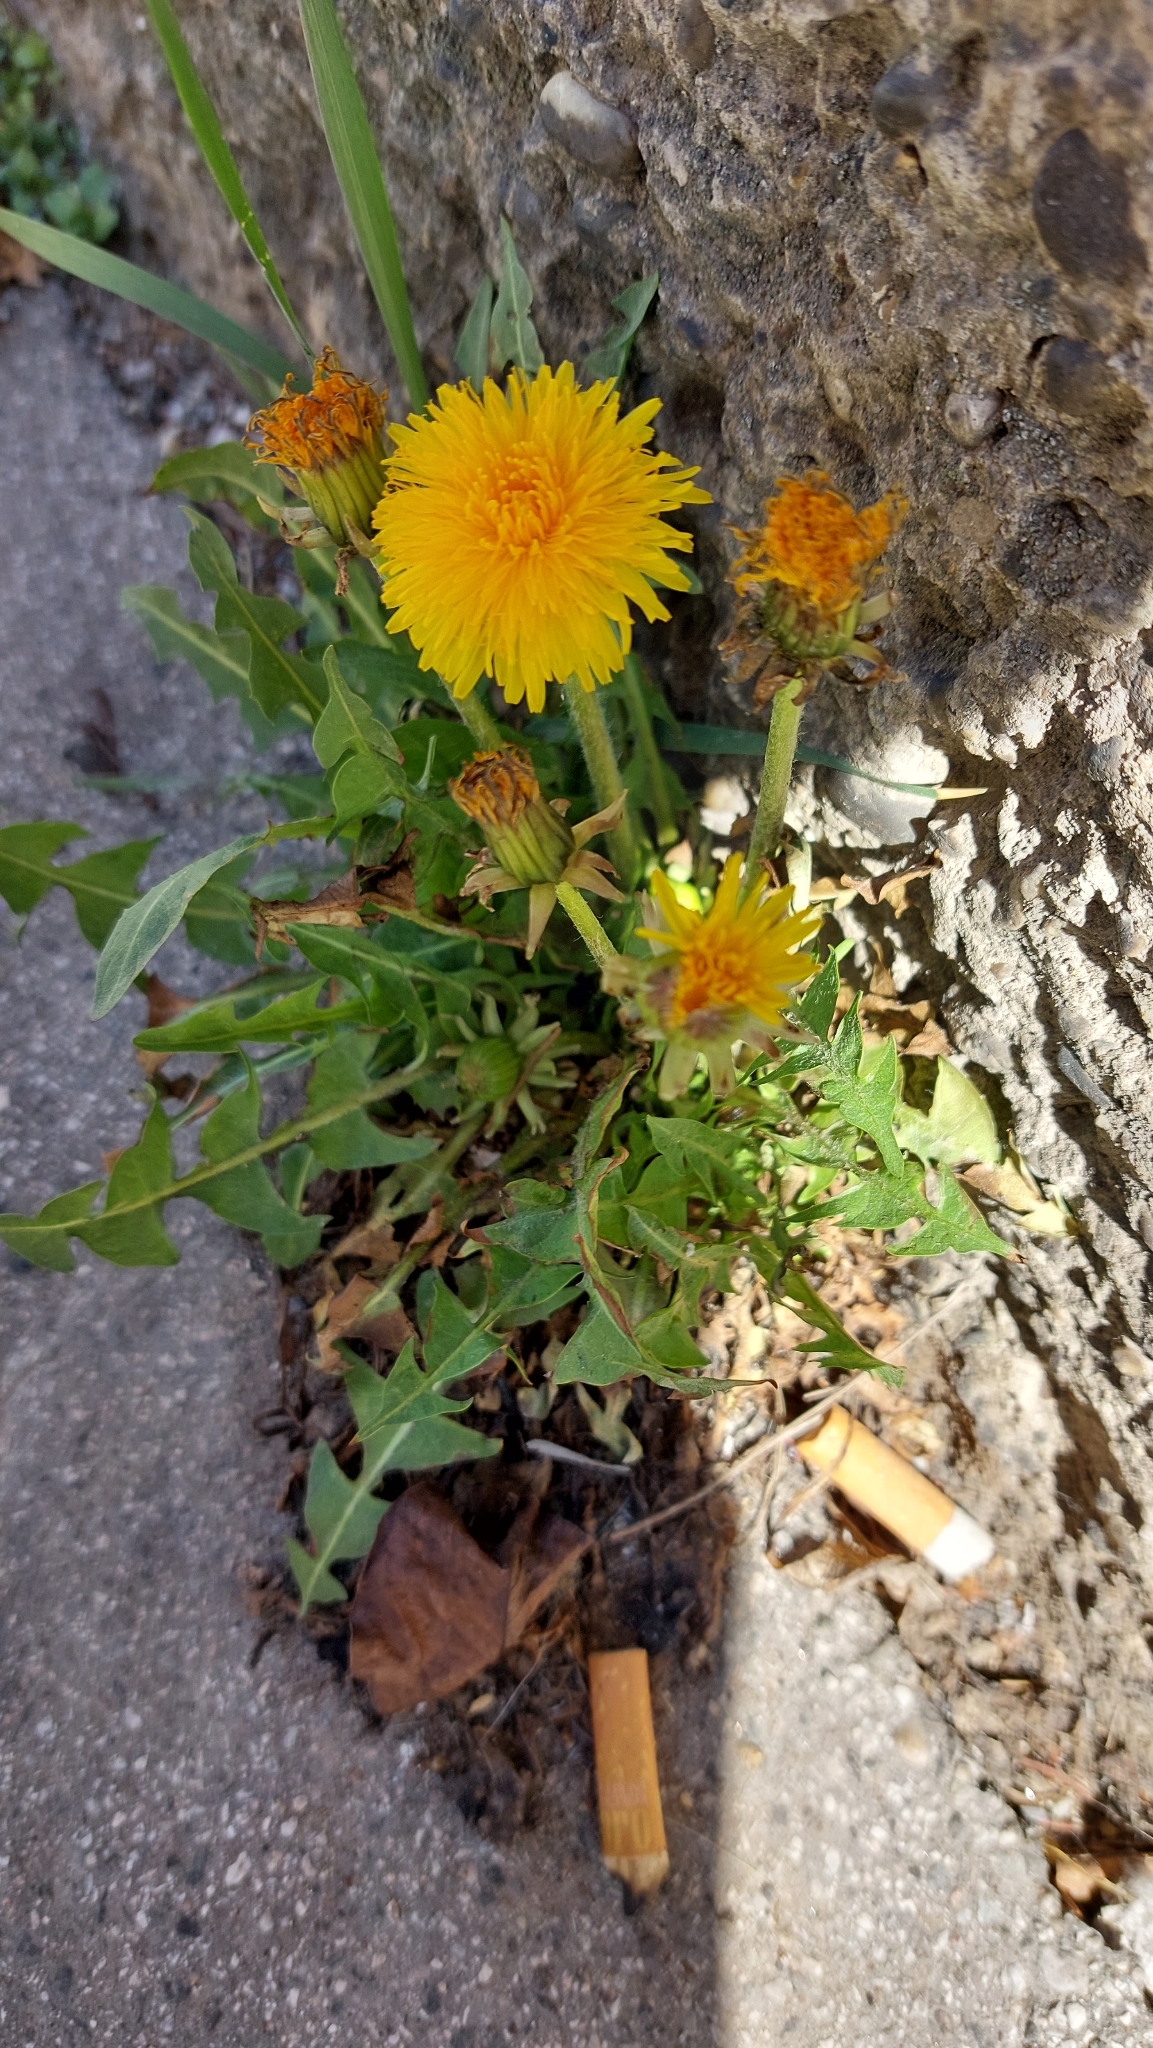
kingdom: Plantae
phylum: Tracheophyta
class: Magnoliopsida
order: Asterales
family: Asteraceae
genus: Taraxacum
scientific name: Taraxacum officinale
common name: Common dandelion
